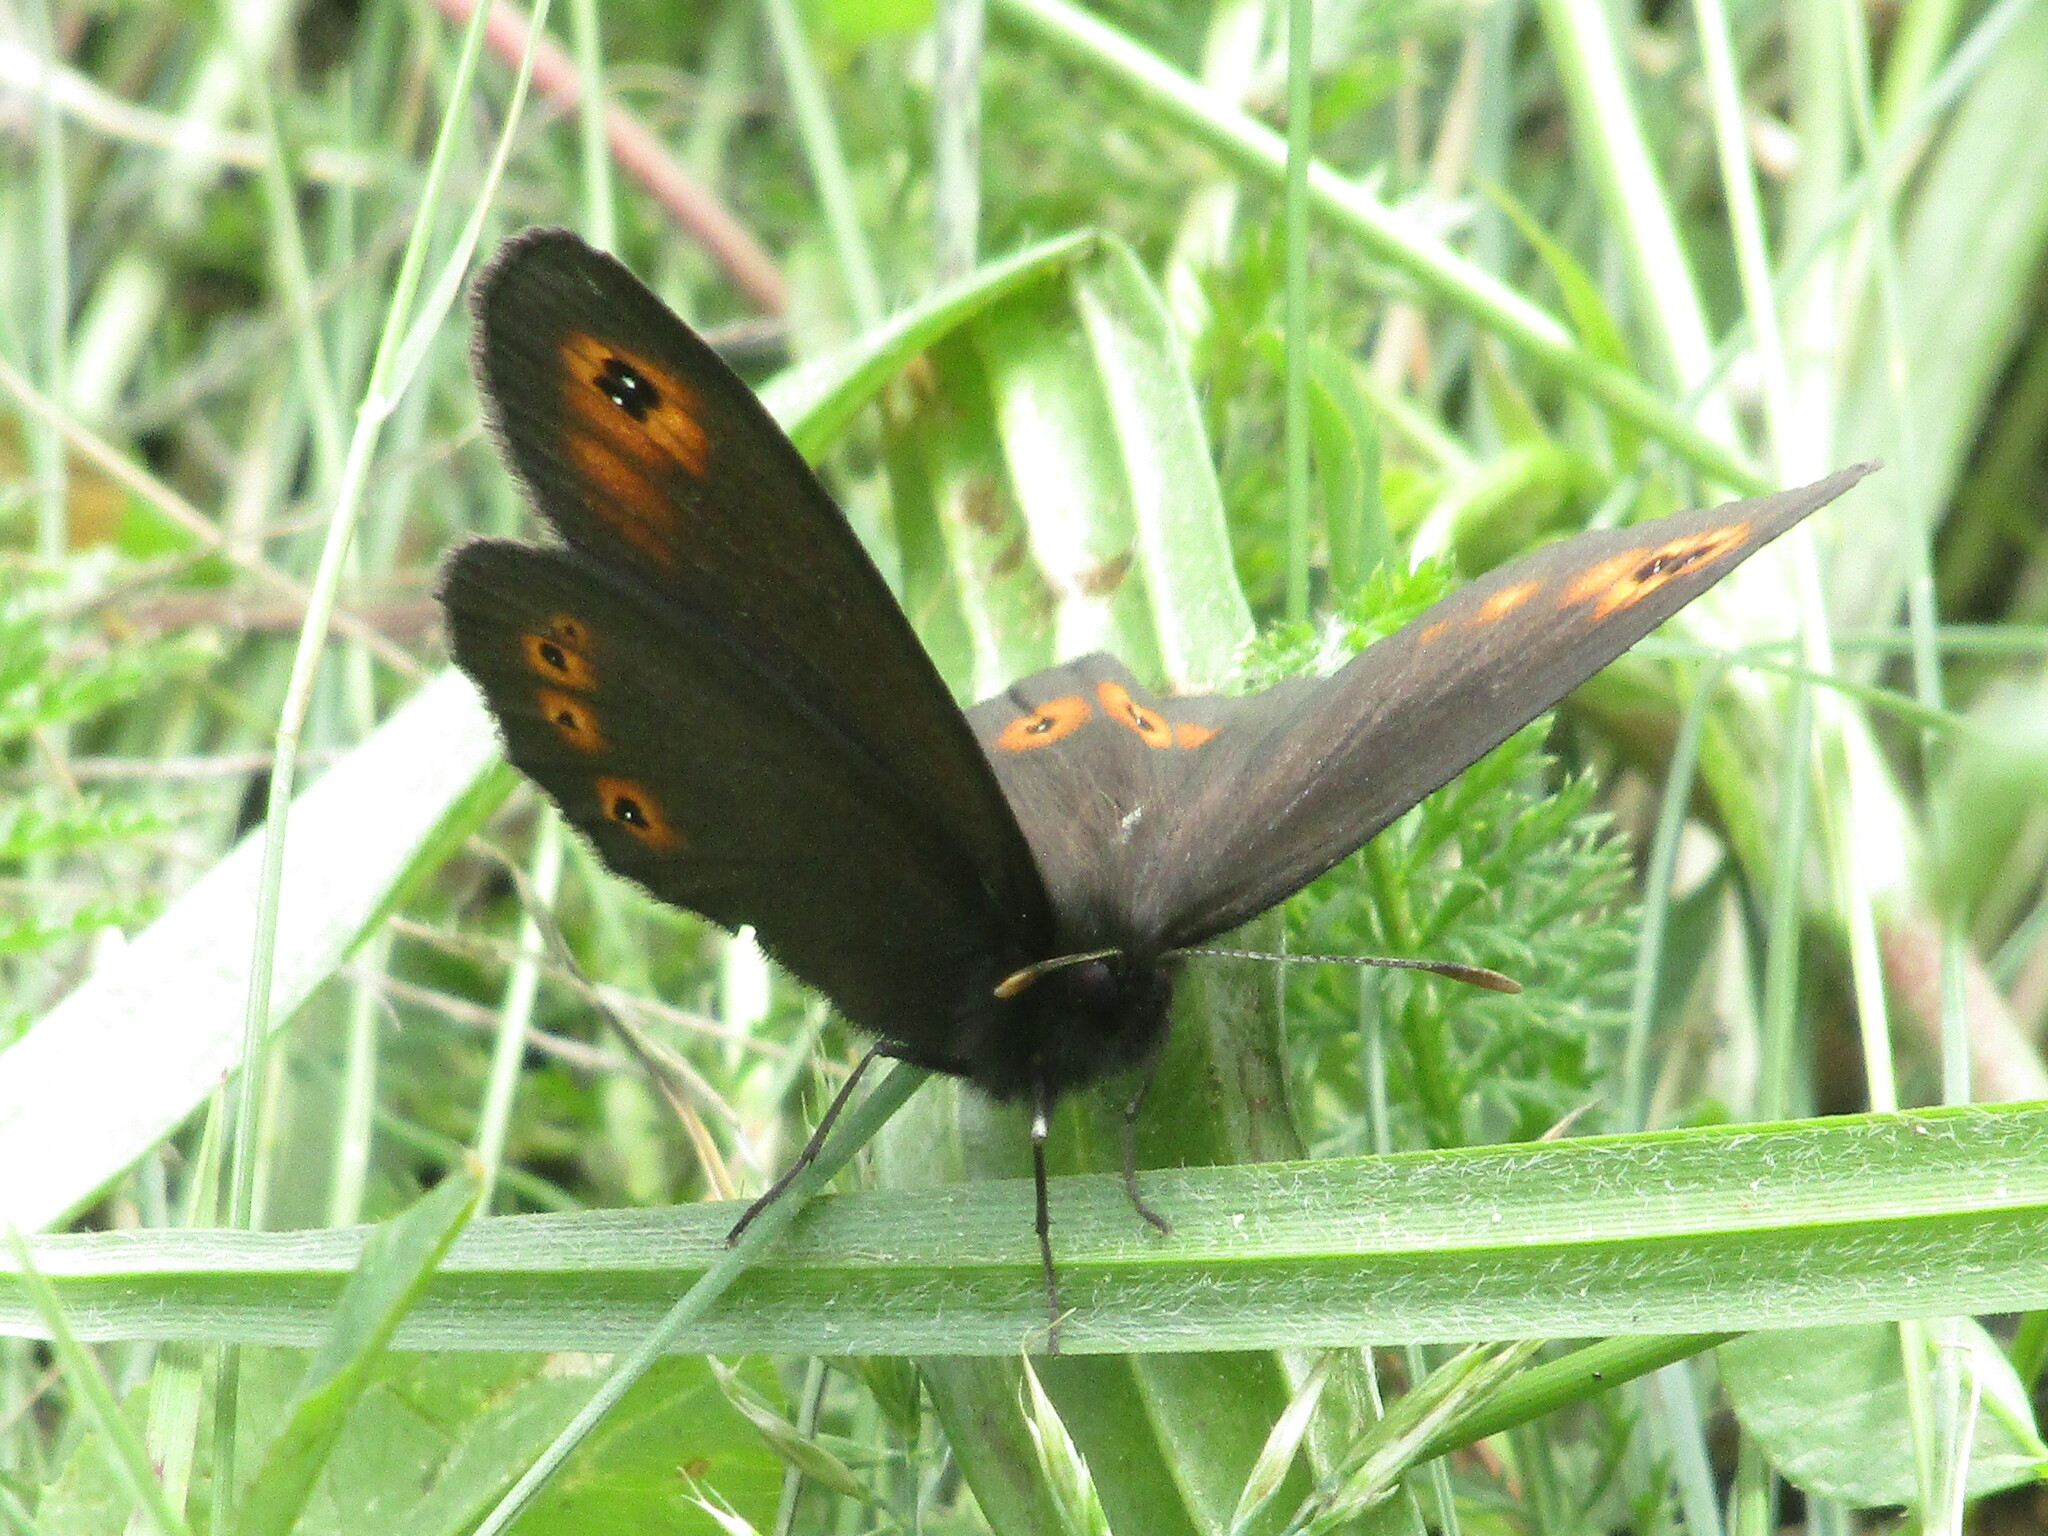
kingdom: Animalia
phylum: Arthropoda
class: Insecta
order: Lepidoptera
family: Nymphalidae
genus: Erebia
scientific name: Erebia medusa
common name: Woodland ringlet
